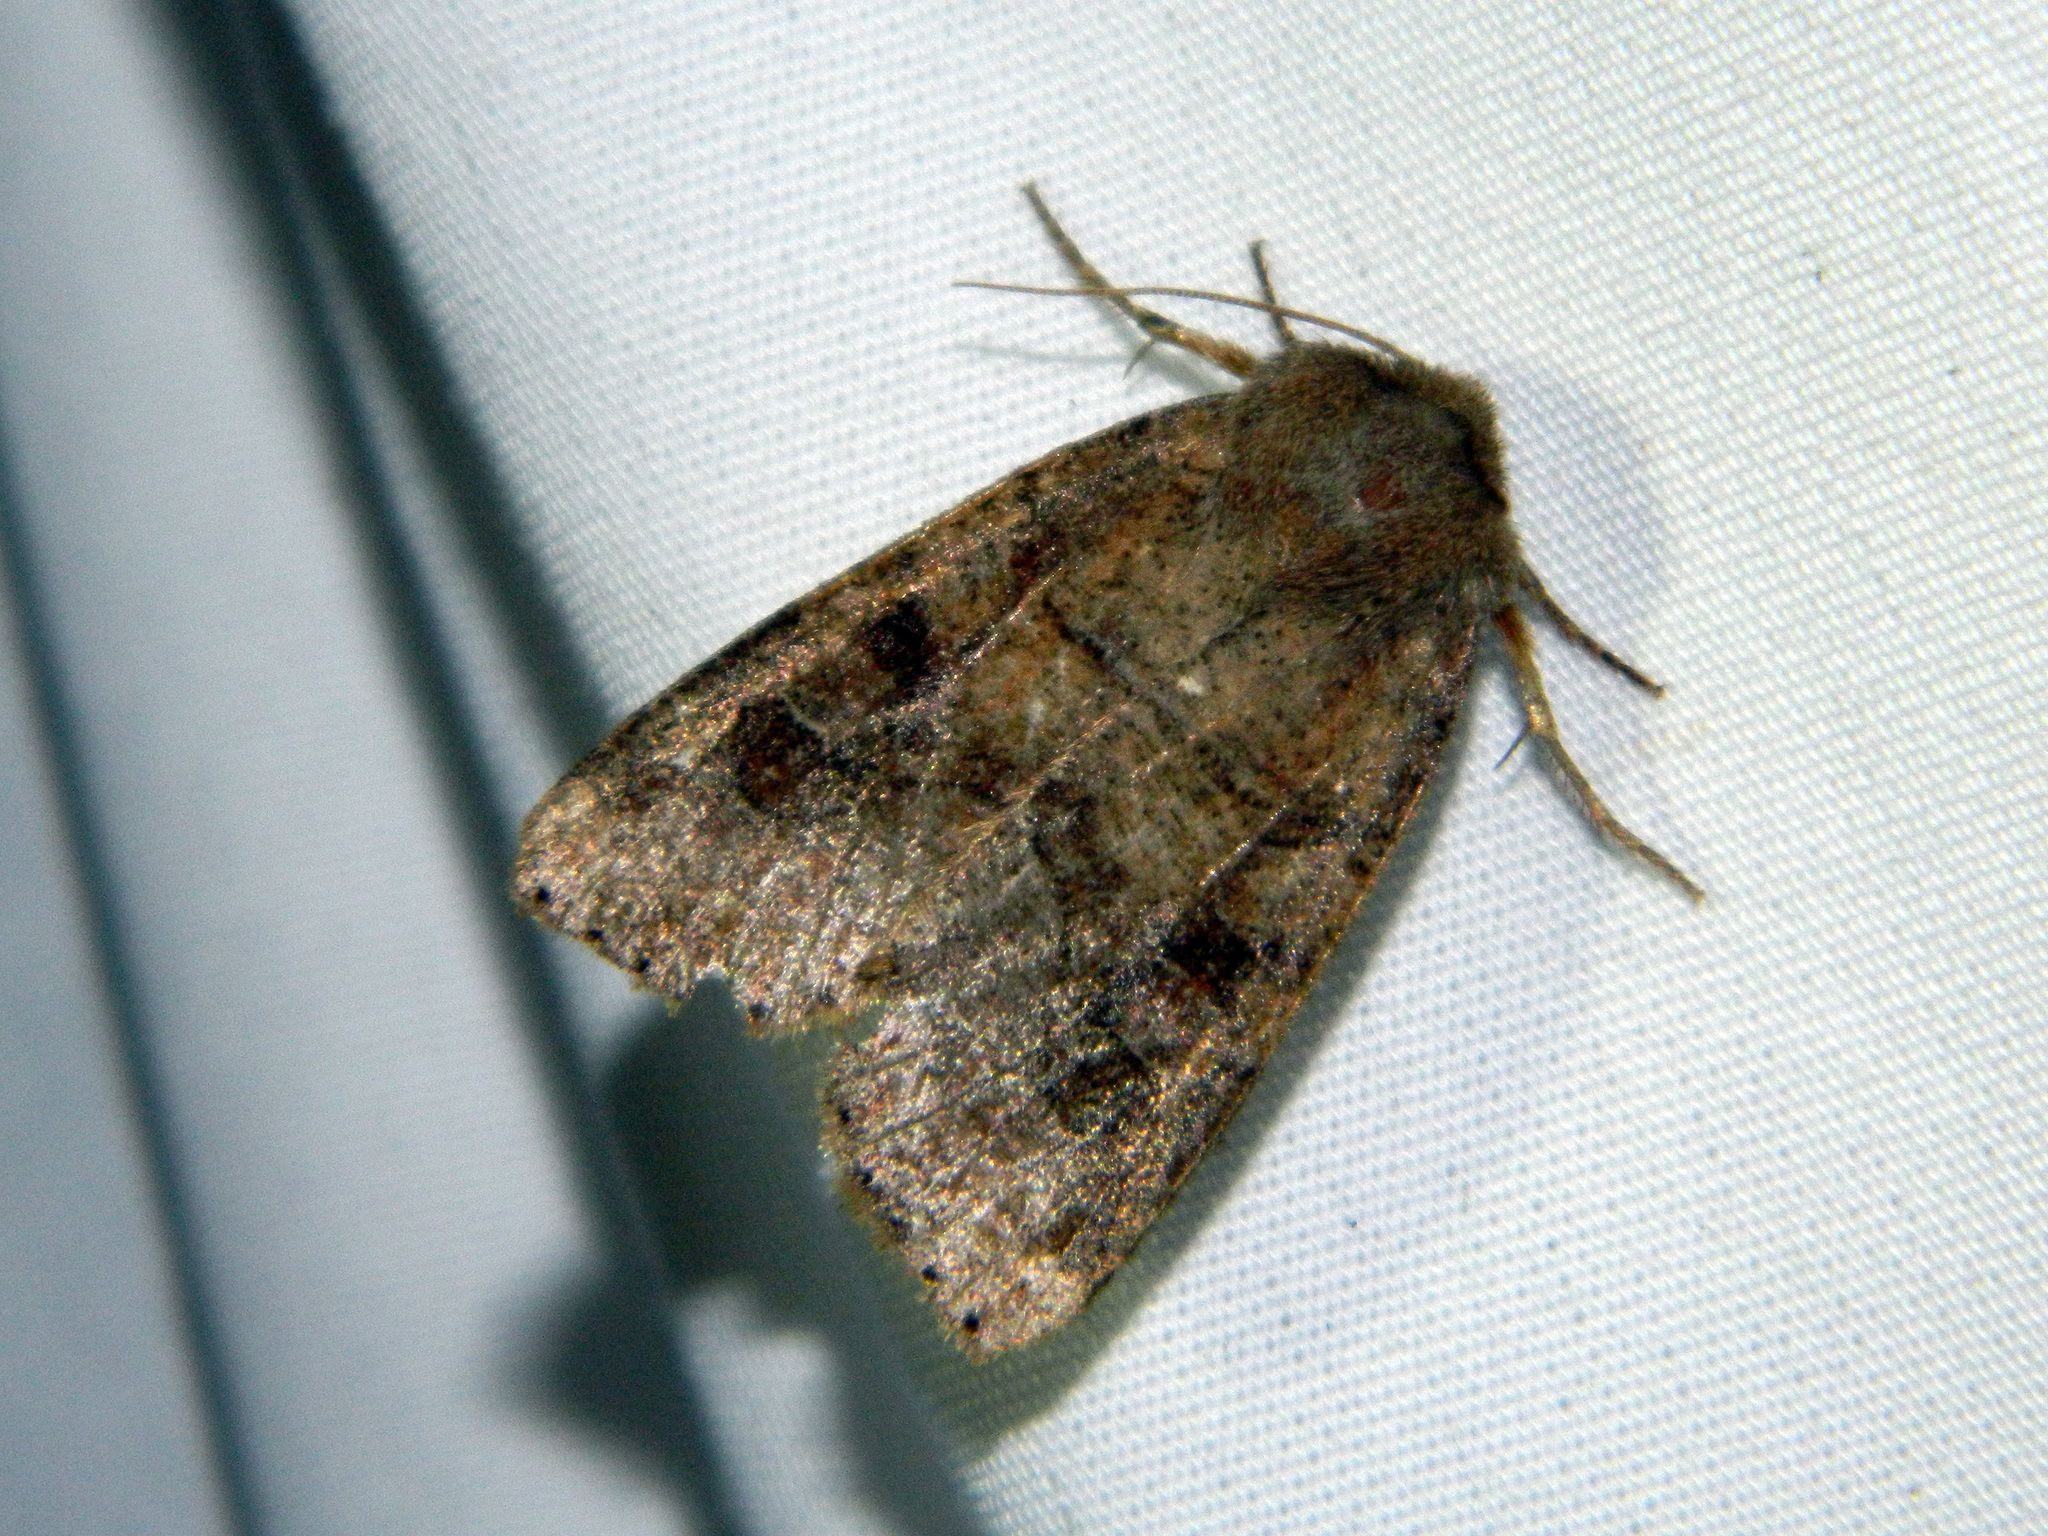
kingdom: Animalia
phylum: Arthropoda
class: Insecta
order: Lepidoptera
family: Noctuidae
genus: Crocigrapha
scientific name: Crocigrapha normani
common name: Norman's quaker
